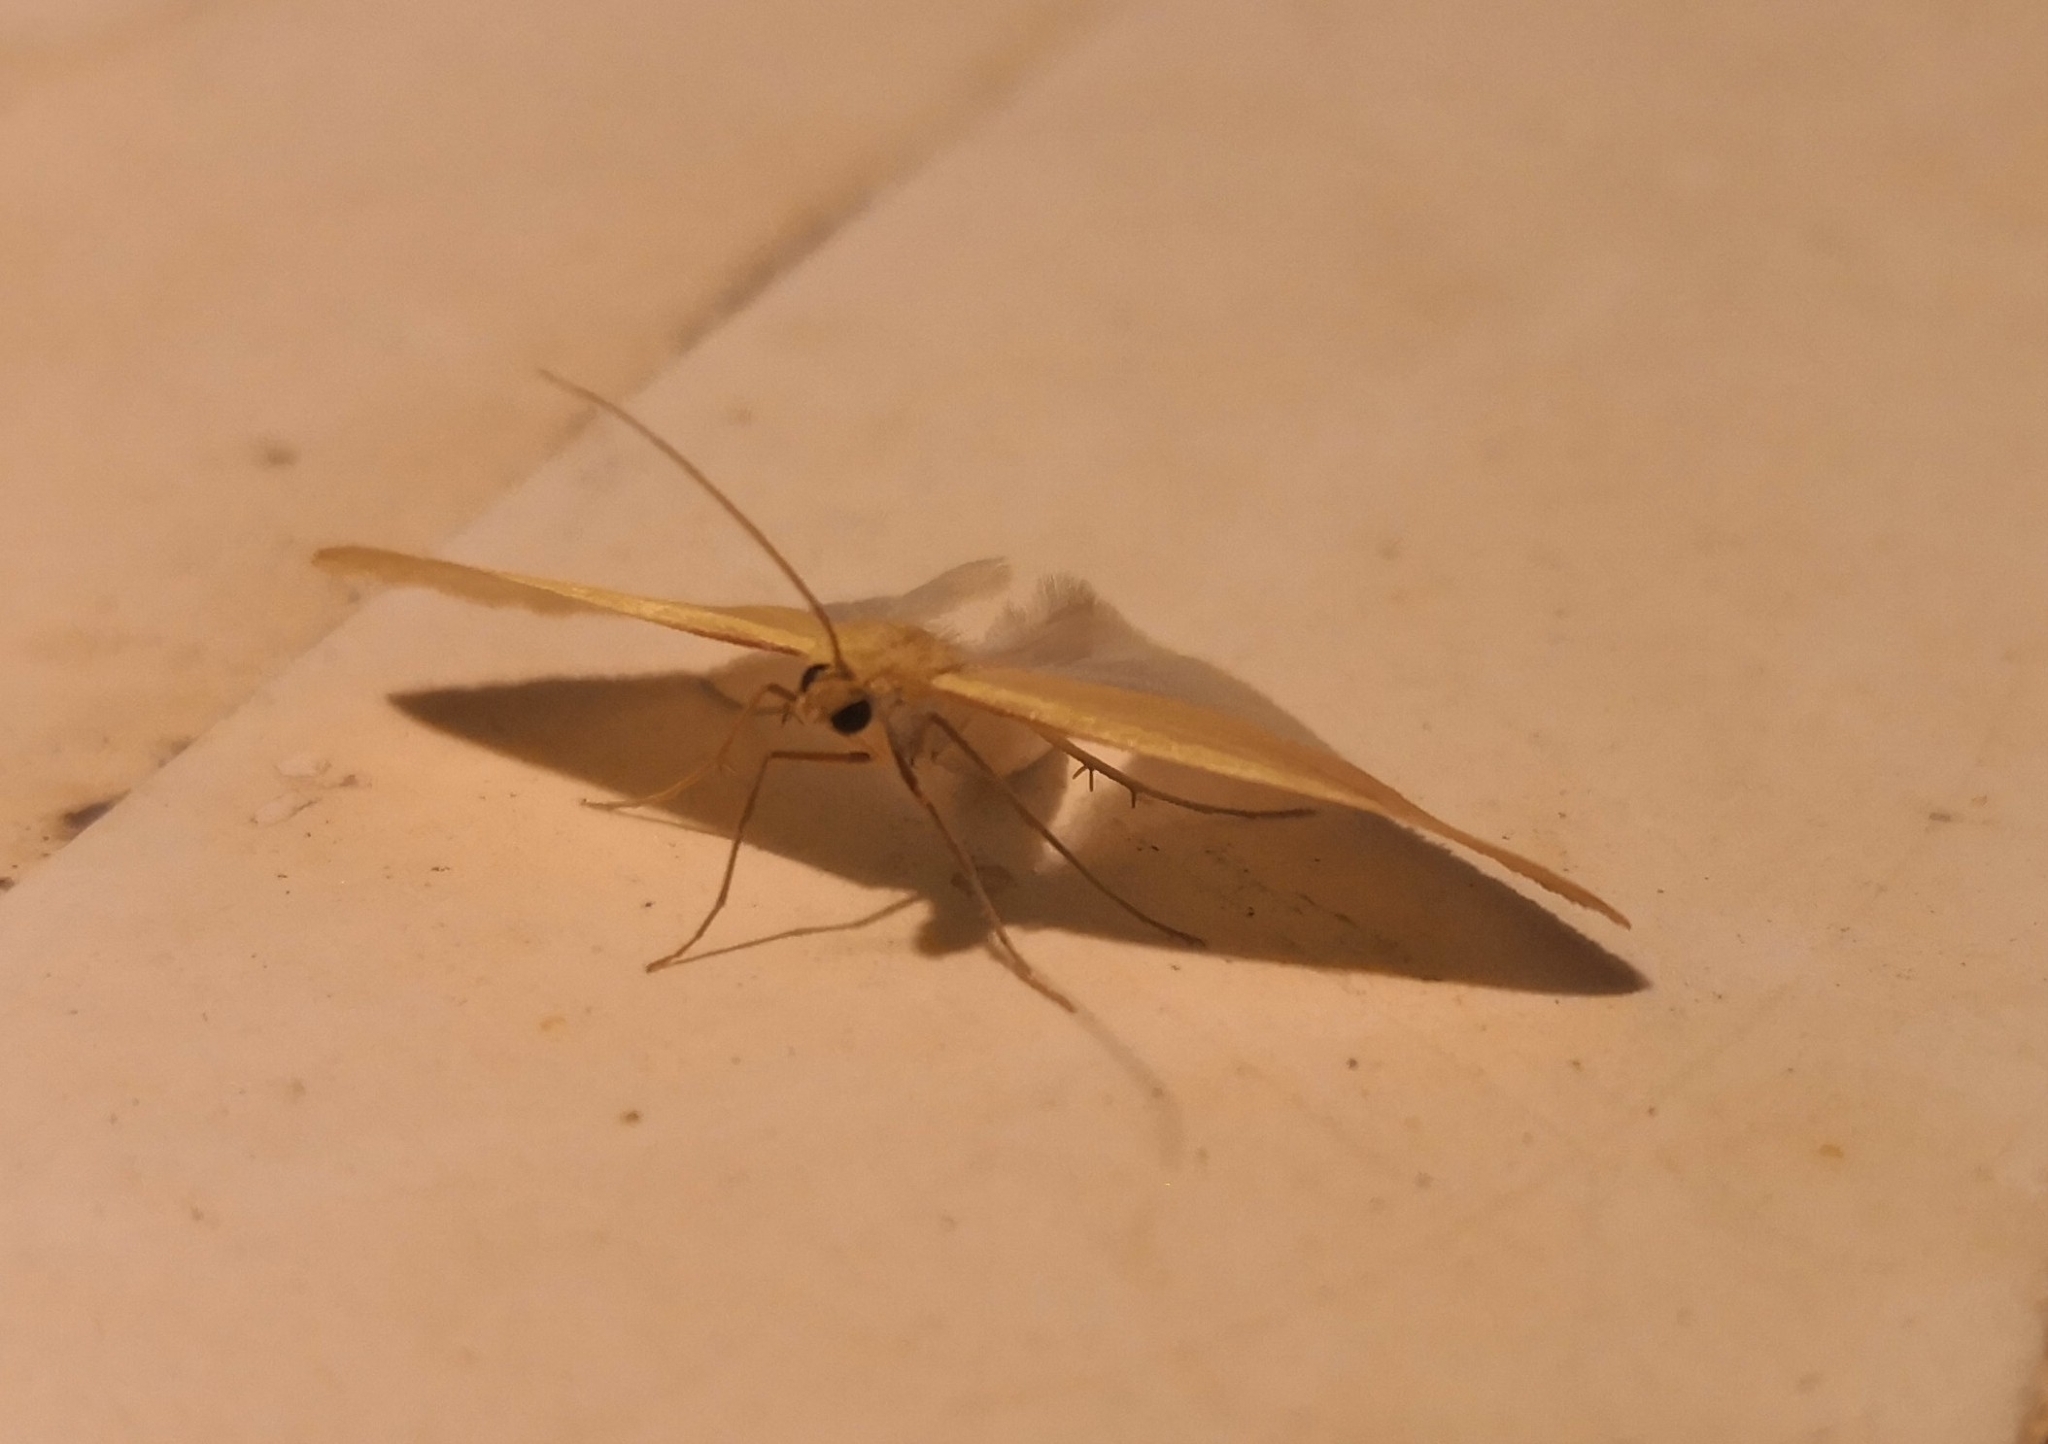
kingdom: Animalia
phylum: Arthropoda
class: Insecta
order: Lepidoptera
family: Geometridae
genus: Rhodometra
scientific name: Rhodometra sacraria
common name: Vestal
